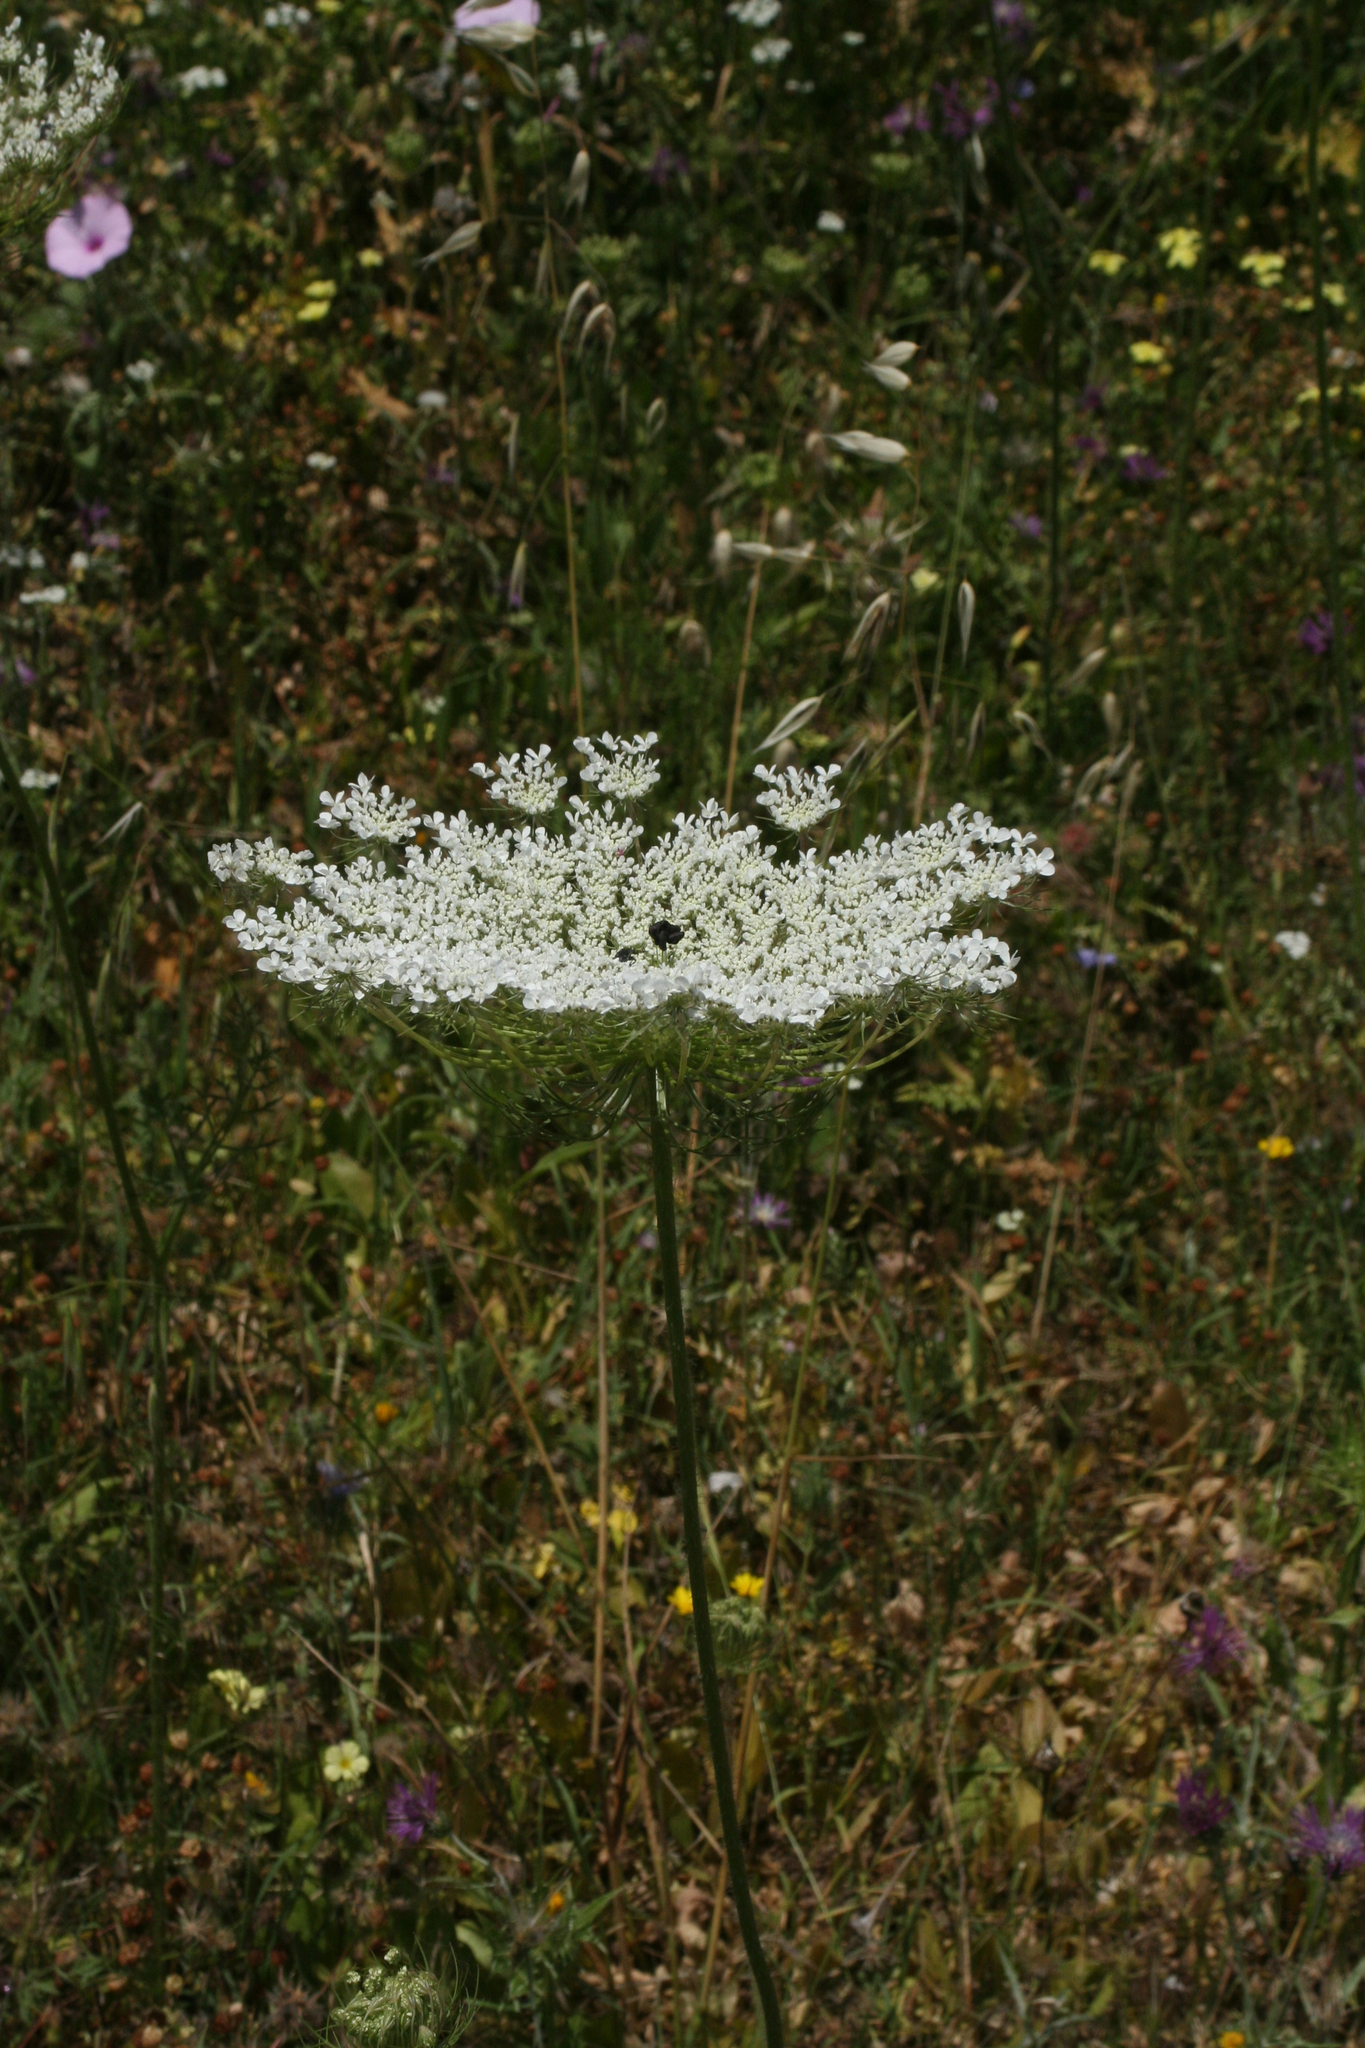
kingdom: Plantae
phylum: Tracheophyta
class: Magnoliopsida
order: Apiales
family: Apiaceae
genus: Daucus
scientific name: Daucus carota
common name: Wild carrot
